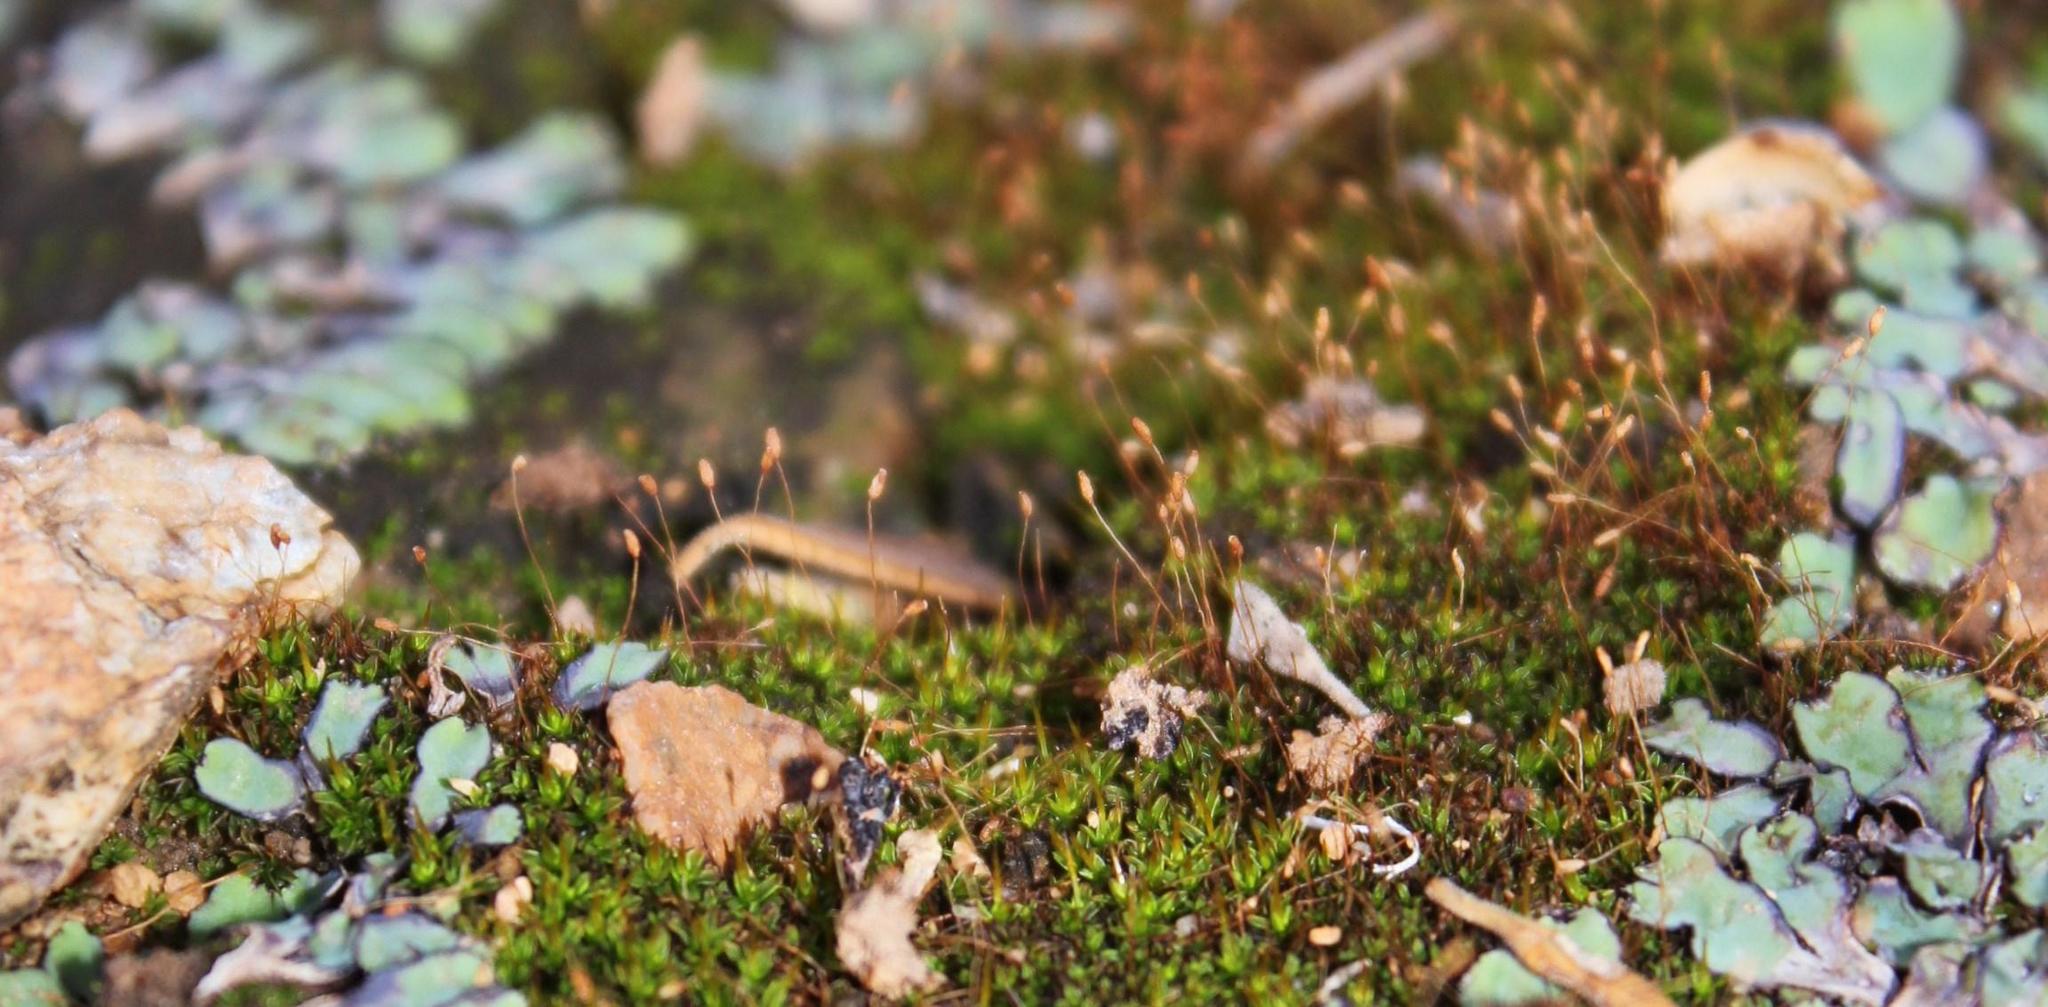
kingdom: Plantae
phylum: Marchantiophyta
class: Marchantiopsida
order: Marchantiales
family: Aytoniaceae
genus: Plagiochasma
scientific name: Plagiochasma rupestre
